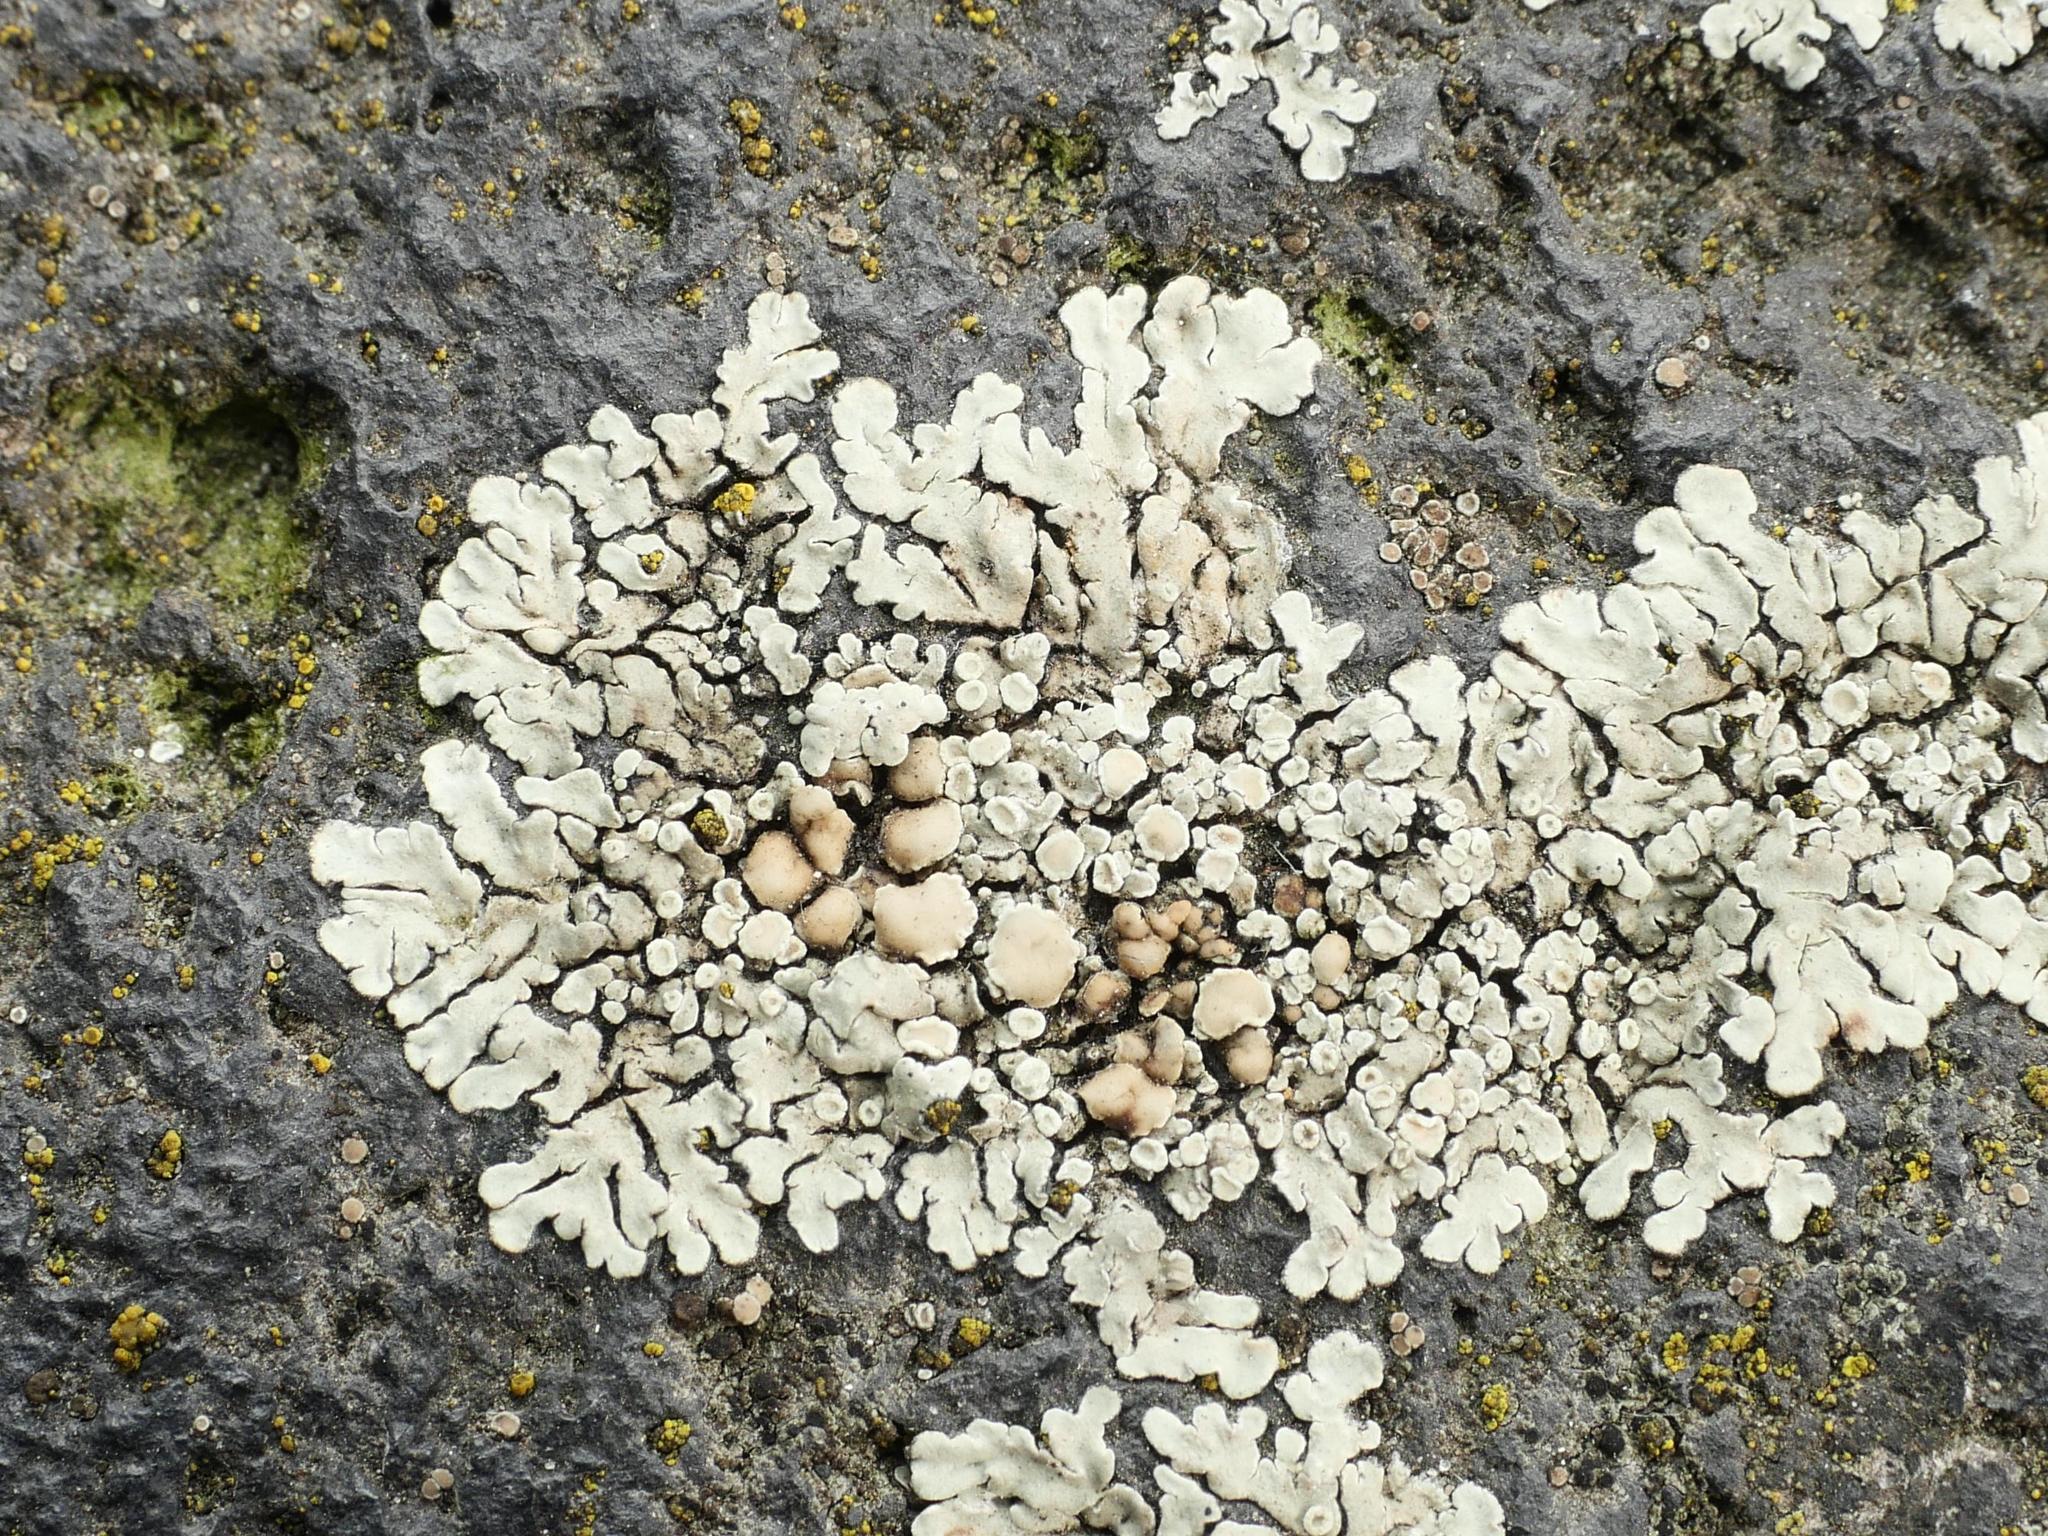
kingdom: Fungi
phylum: Ascomycota
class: Lecanoromycetes
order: Lecanorales
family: Lecanoraceae
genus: Protoparmeliopsis
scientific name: Protoparmeliopsis muralis
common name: Stonewall rim lichen
